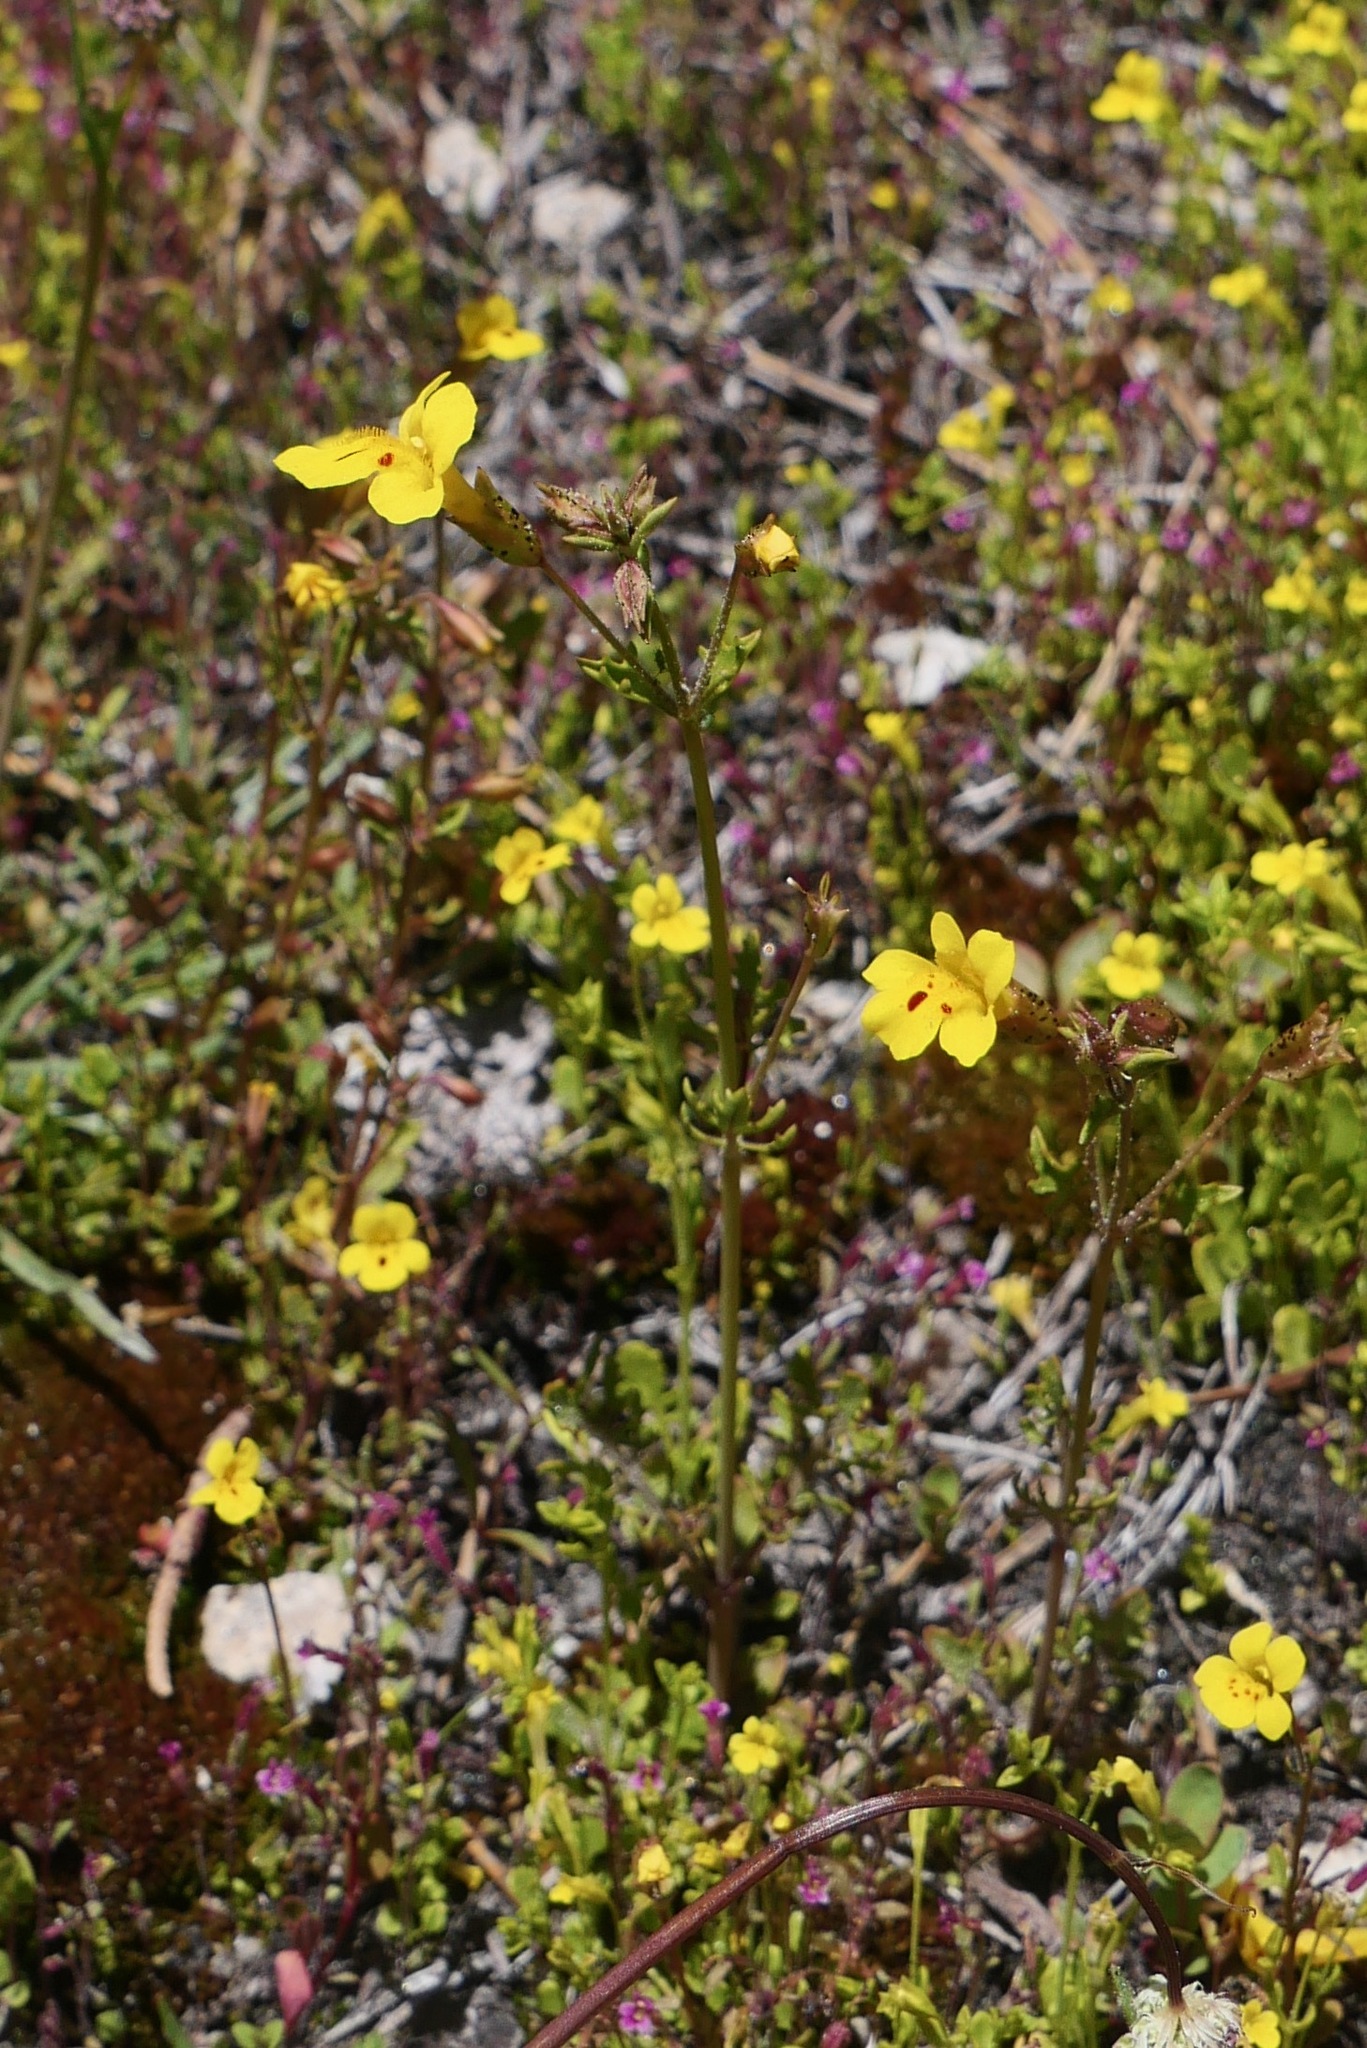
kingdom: Plantae
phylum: Tracheophyta
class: Magnoliopsida
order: Lamiales
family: Phrymaceae
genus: Erythranthe
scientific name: Erythranthe laciniata
